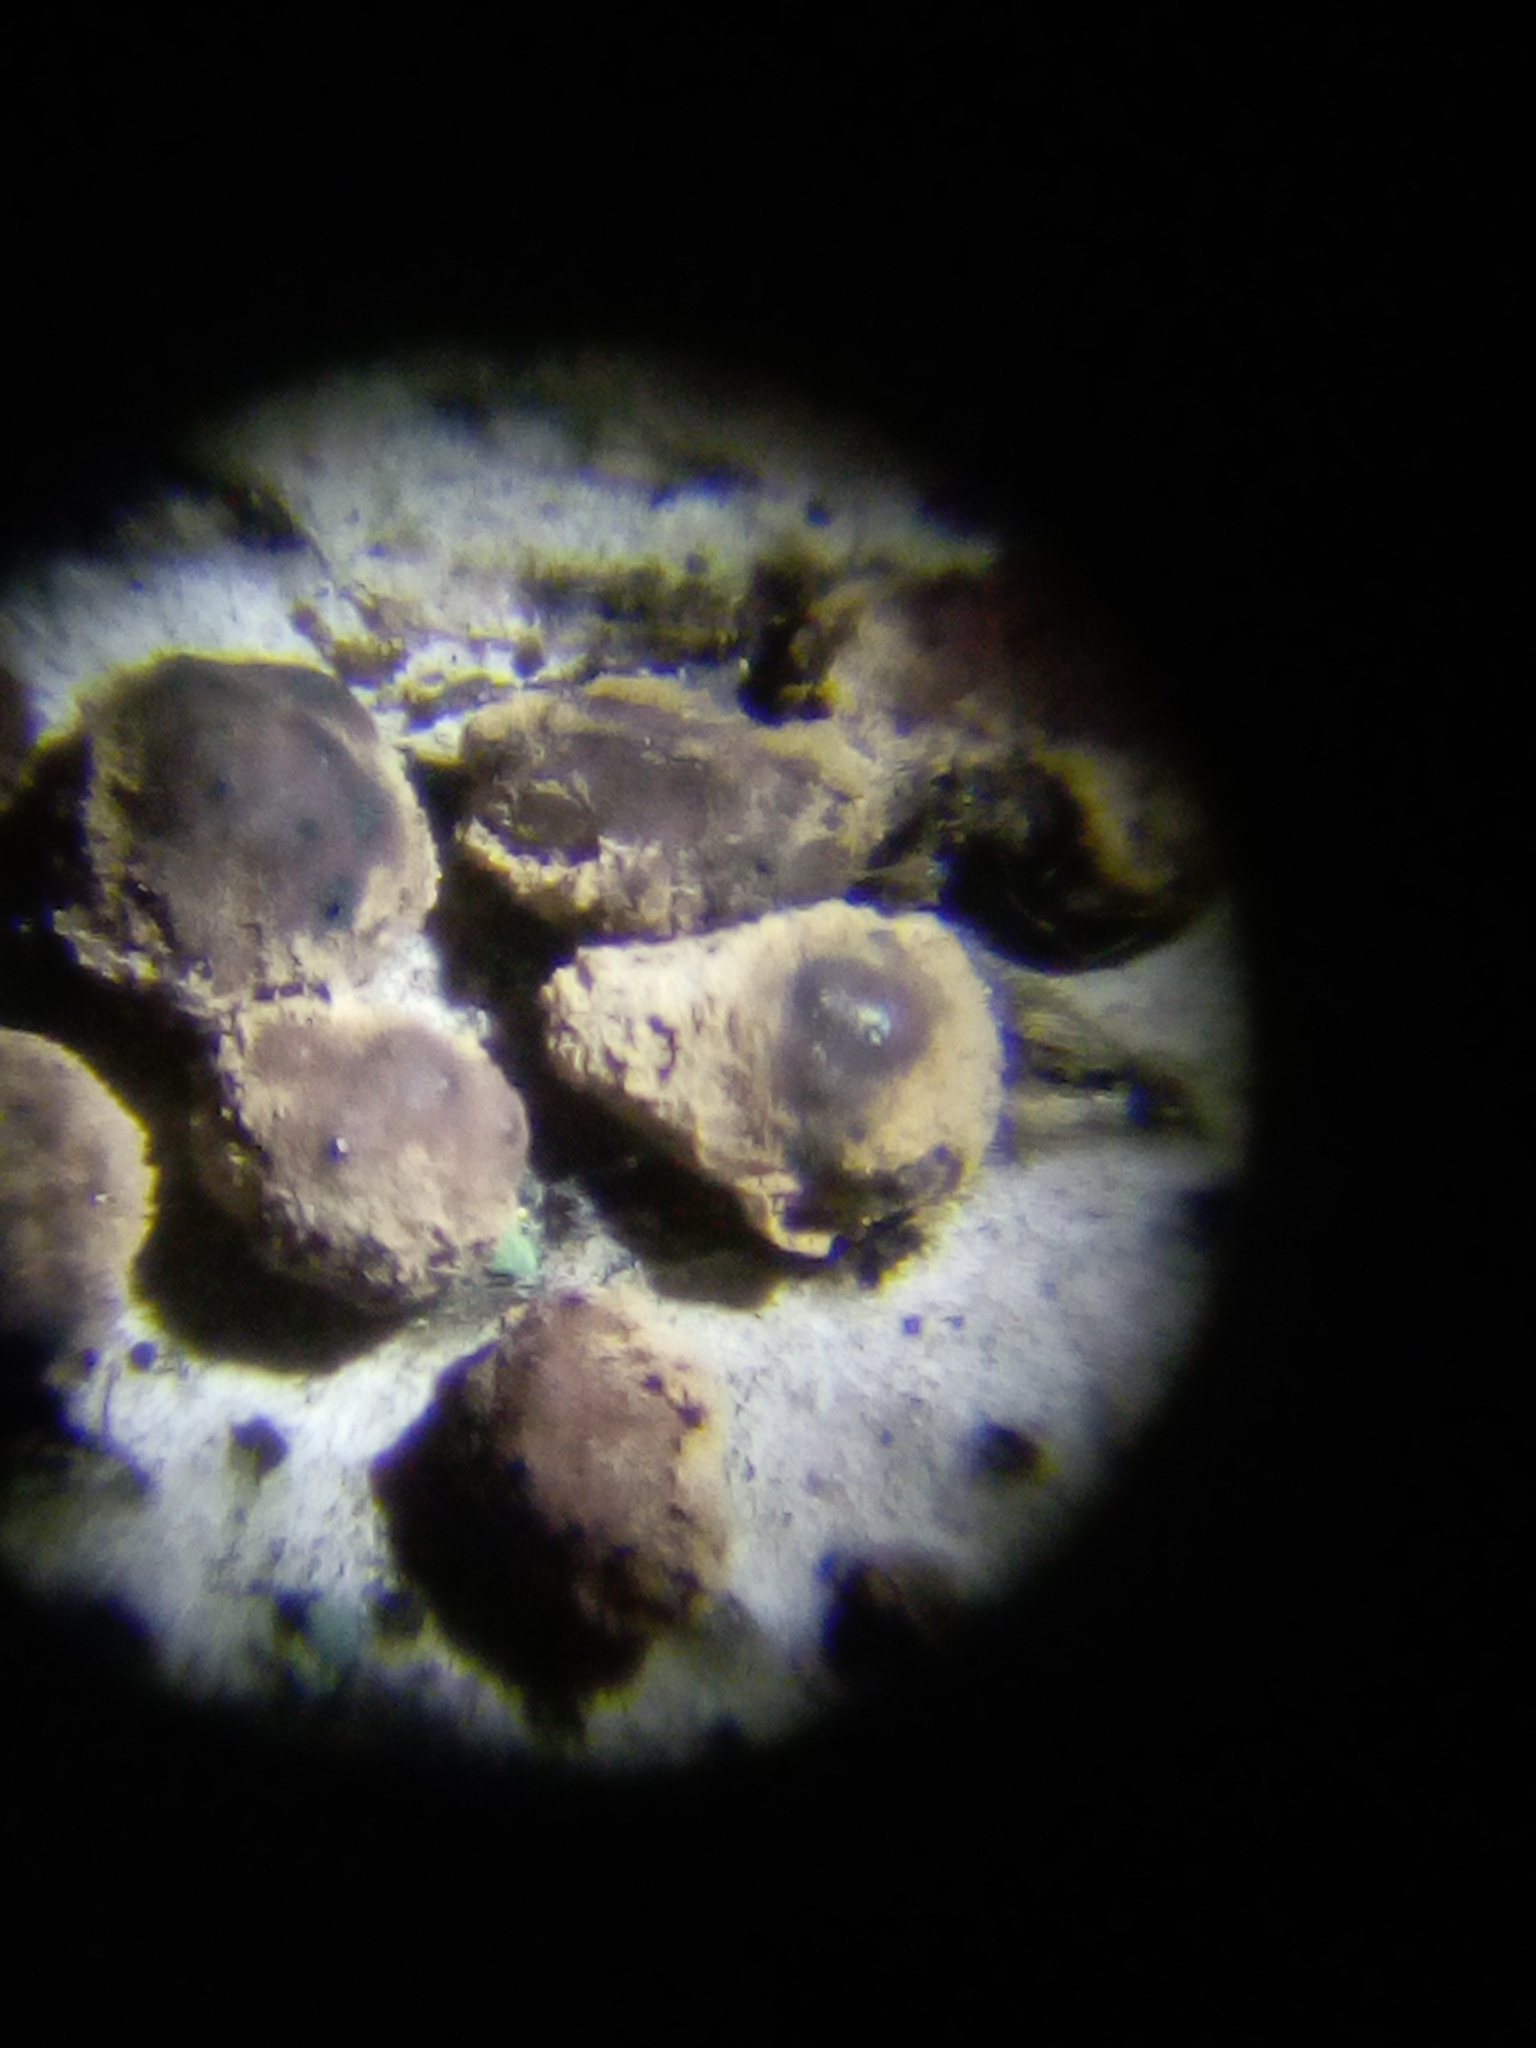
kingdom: Fungi
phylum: Ascomycota
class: Sordariomycetes
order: Xylariales
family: Hypoxylaceae
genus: Jackrogersella
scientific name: Jackrogersella cohaerens
